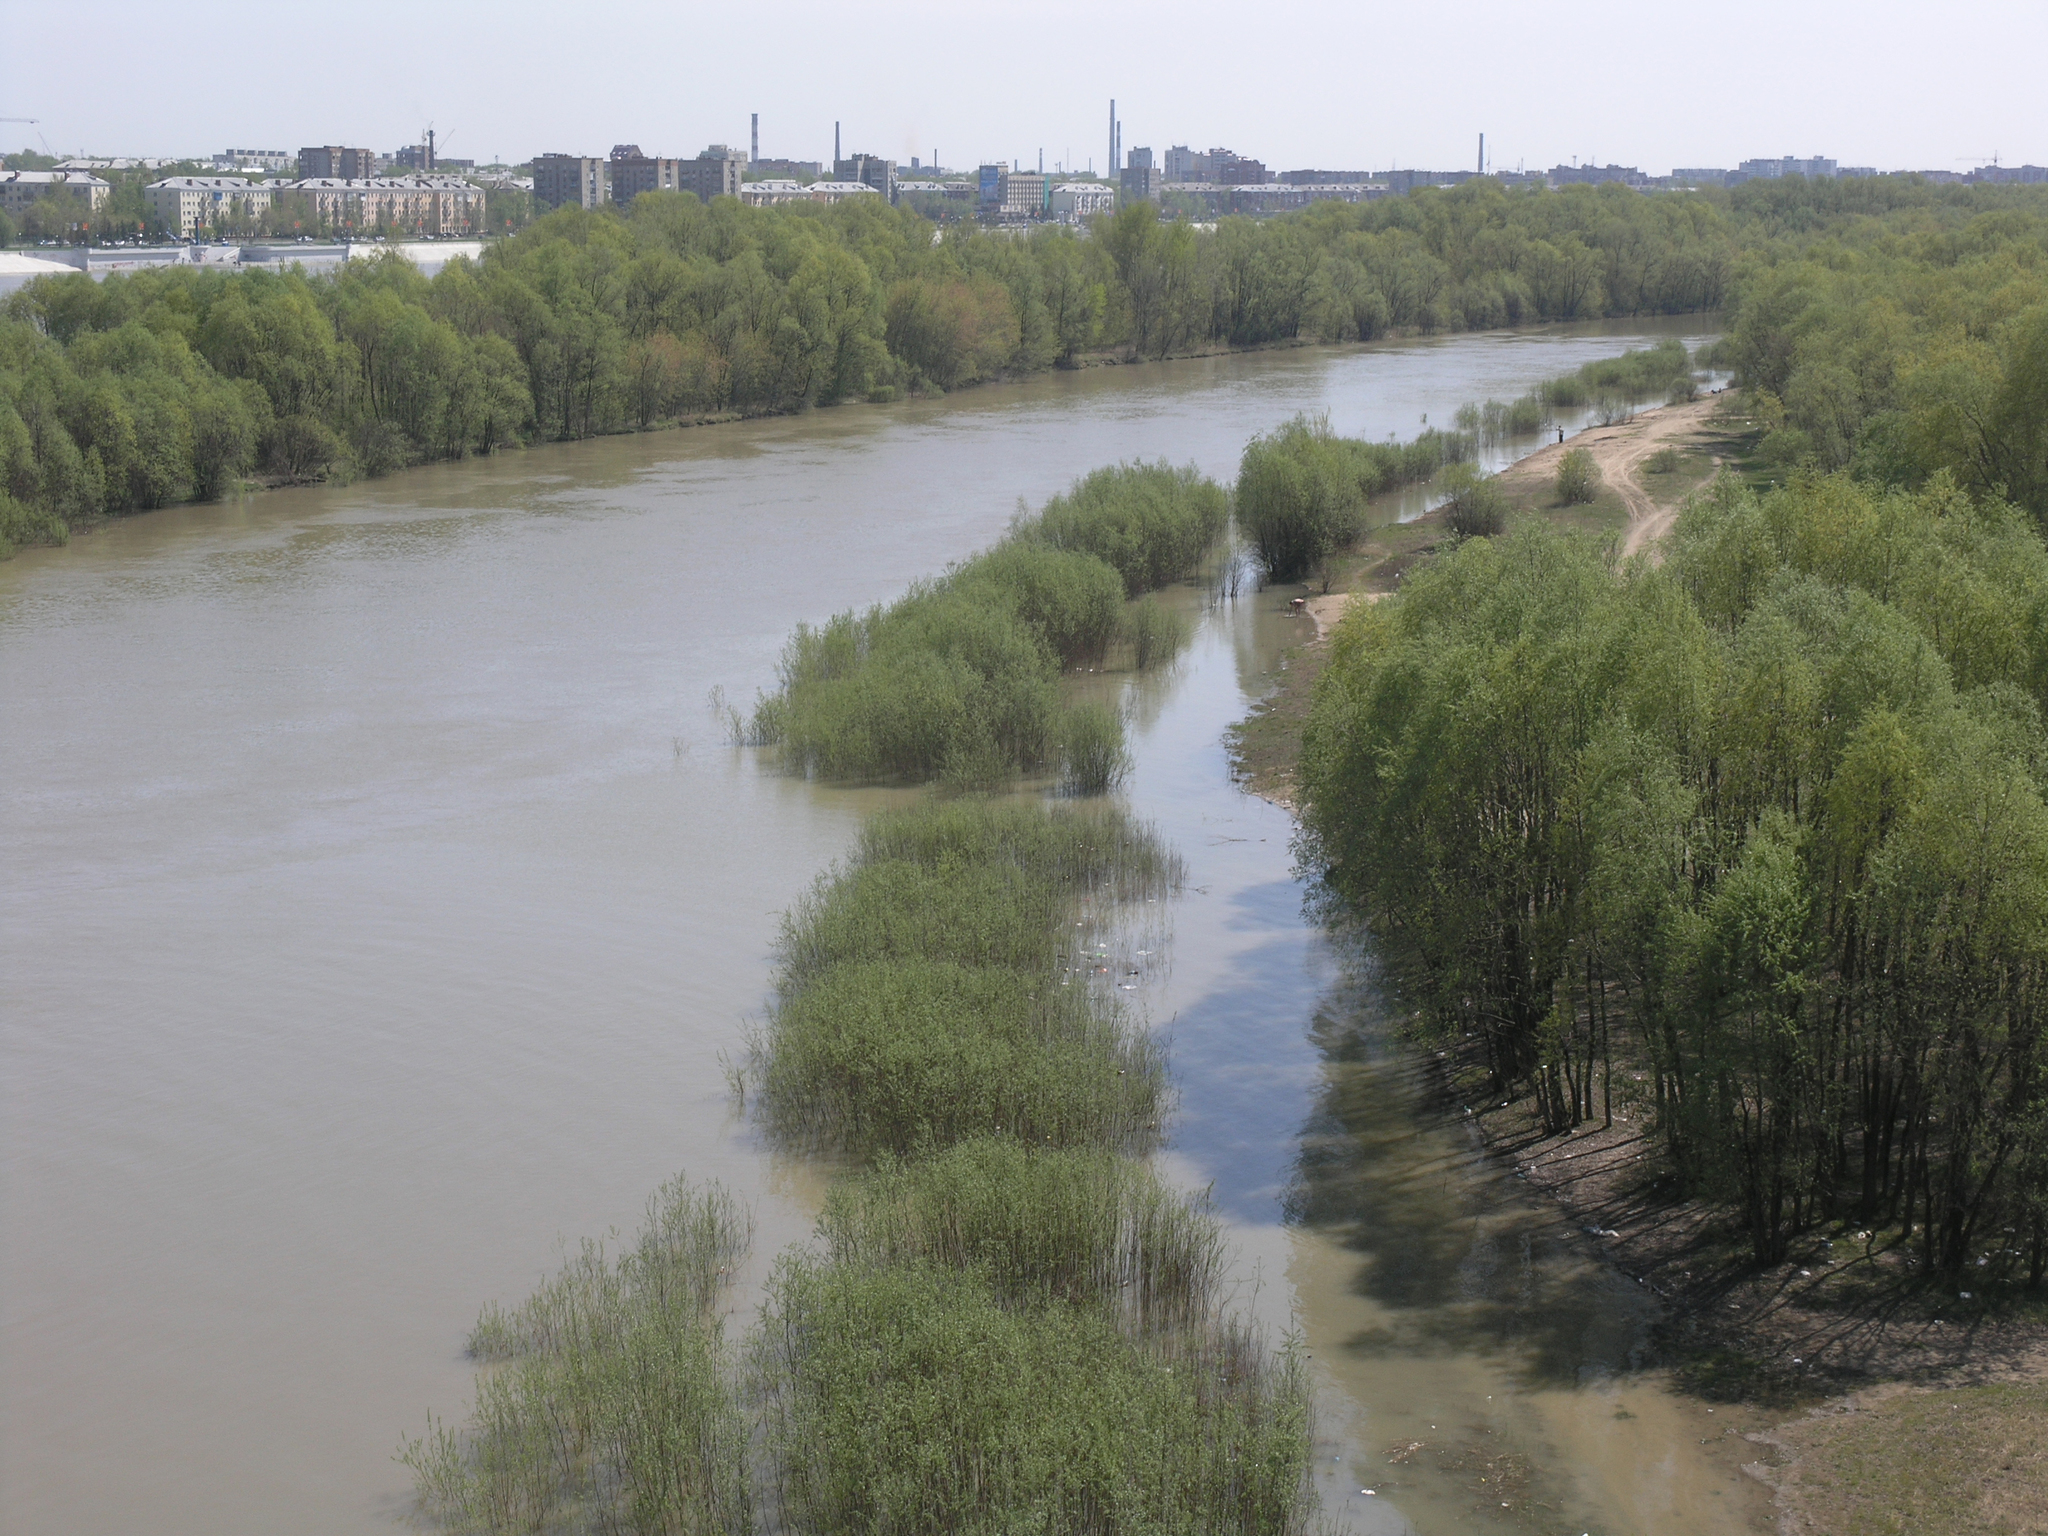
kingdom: Plantae
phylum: Tracheophyta
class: Magnoliopsida
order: Malpighiales
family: Salicaceae
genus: Salix
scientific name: Salix alba
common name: White willow
